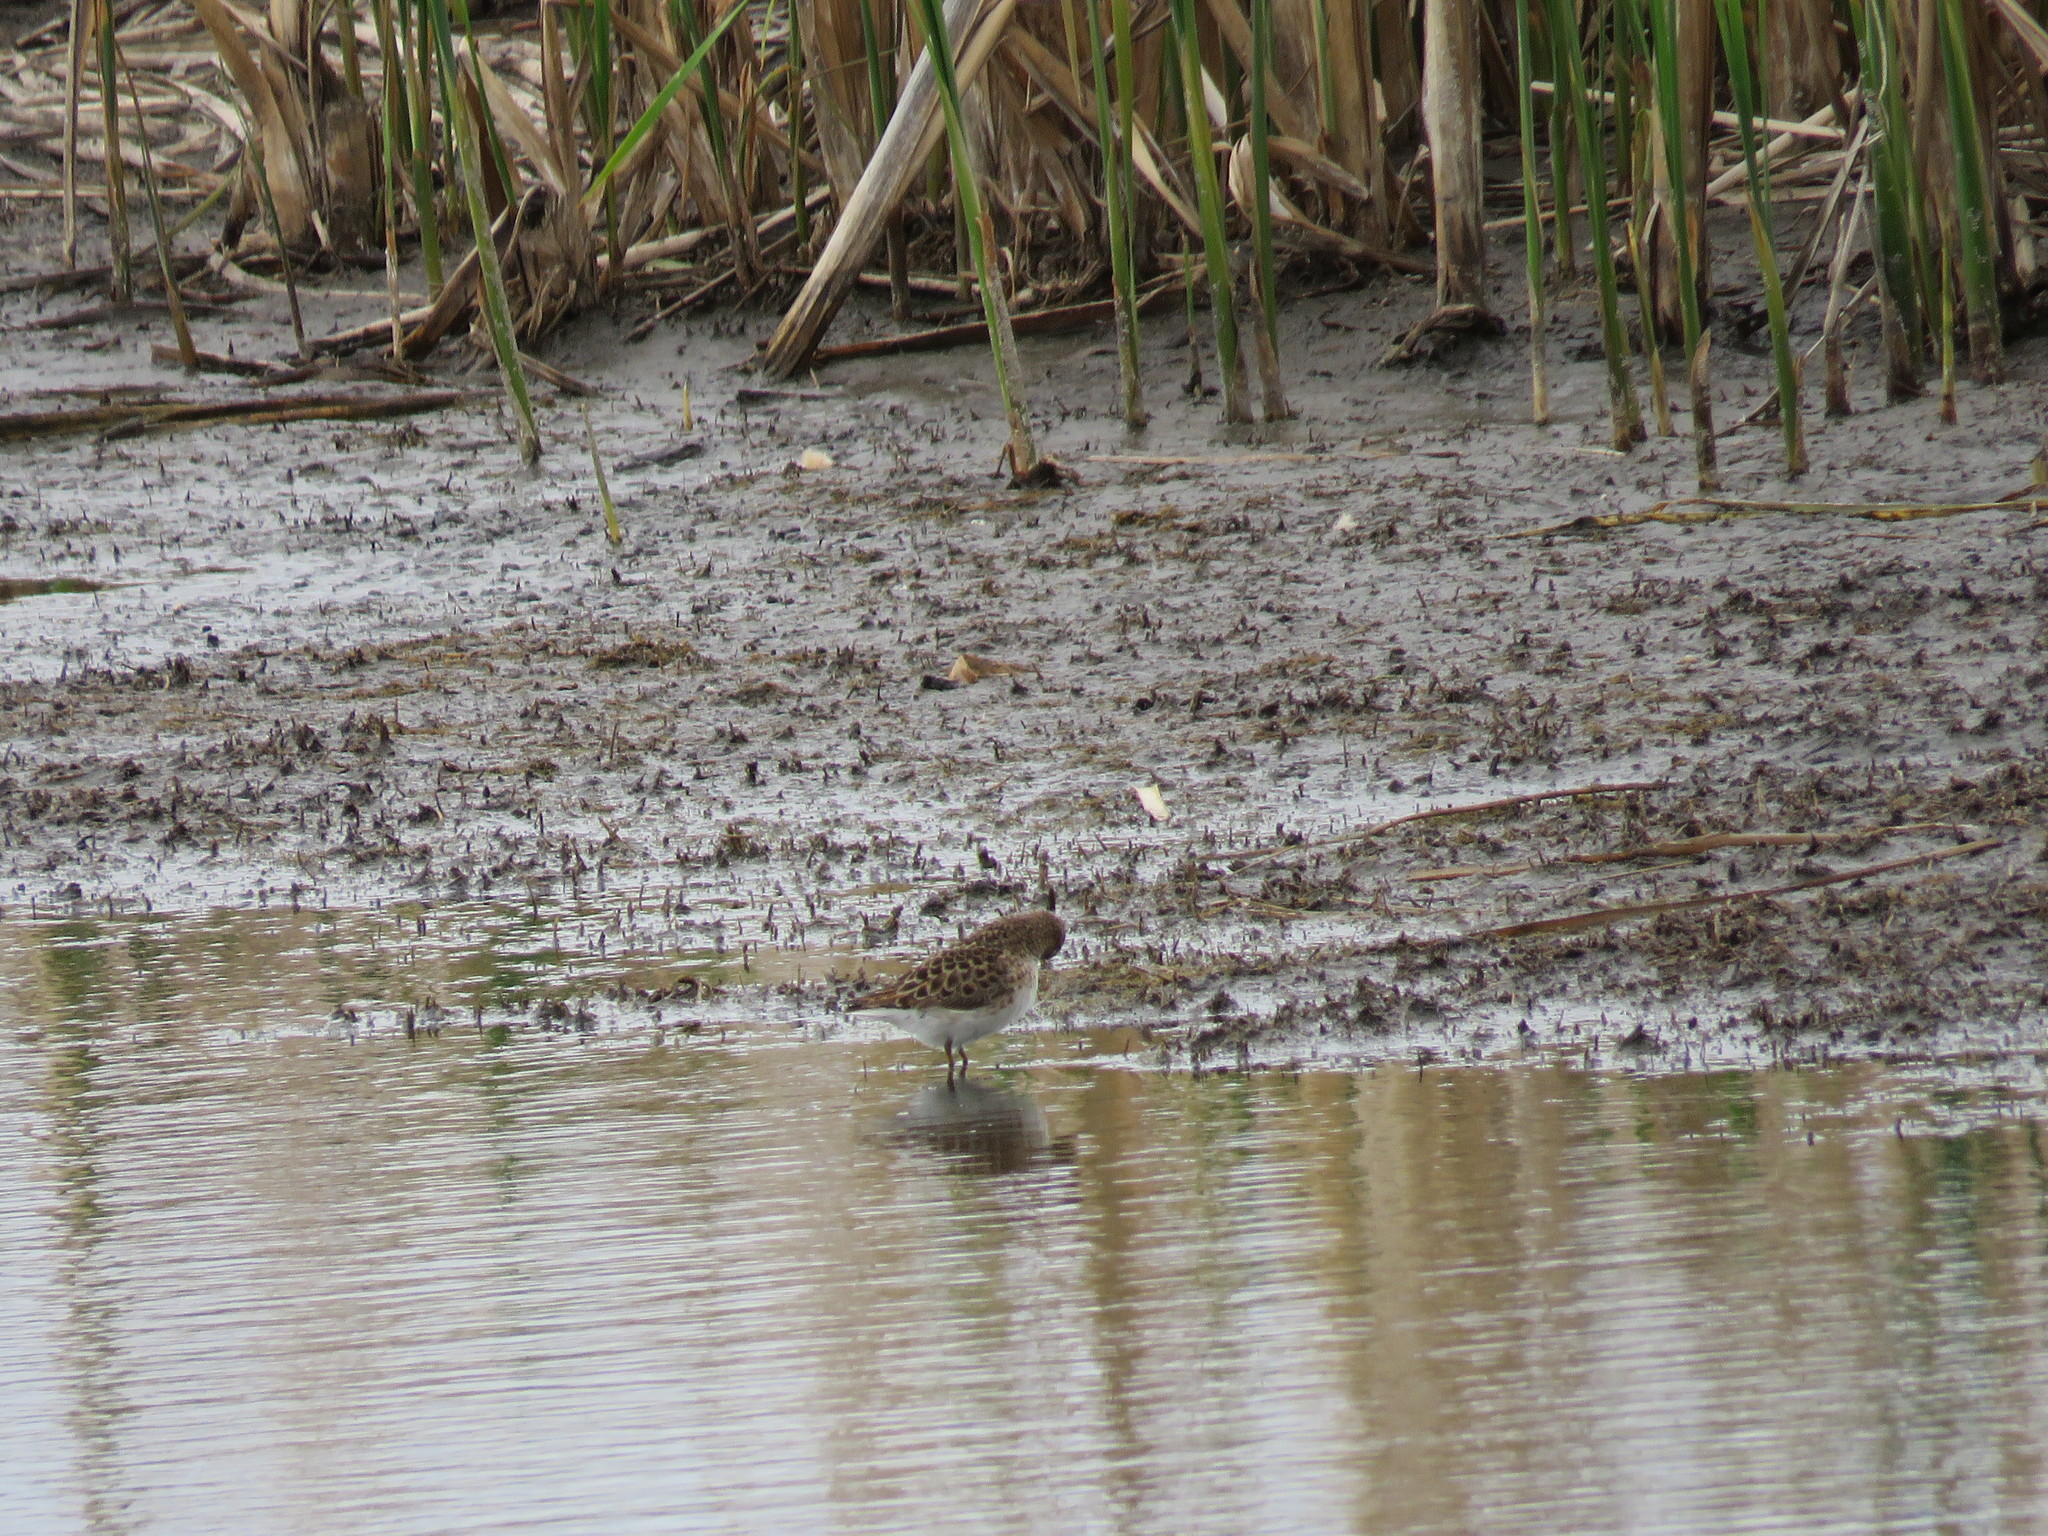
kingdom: Animalia
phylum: Chordata
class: Aves
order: Charadriiformes
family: Scolopacidae
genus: Calidris
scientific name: Calidris minutilla
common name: Least sandpiper
